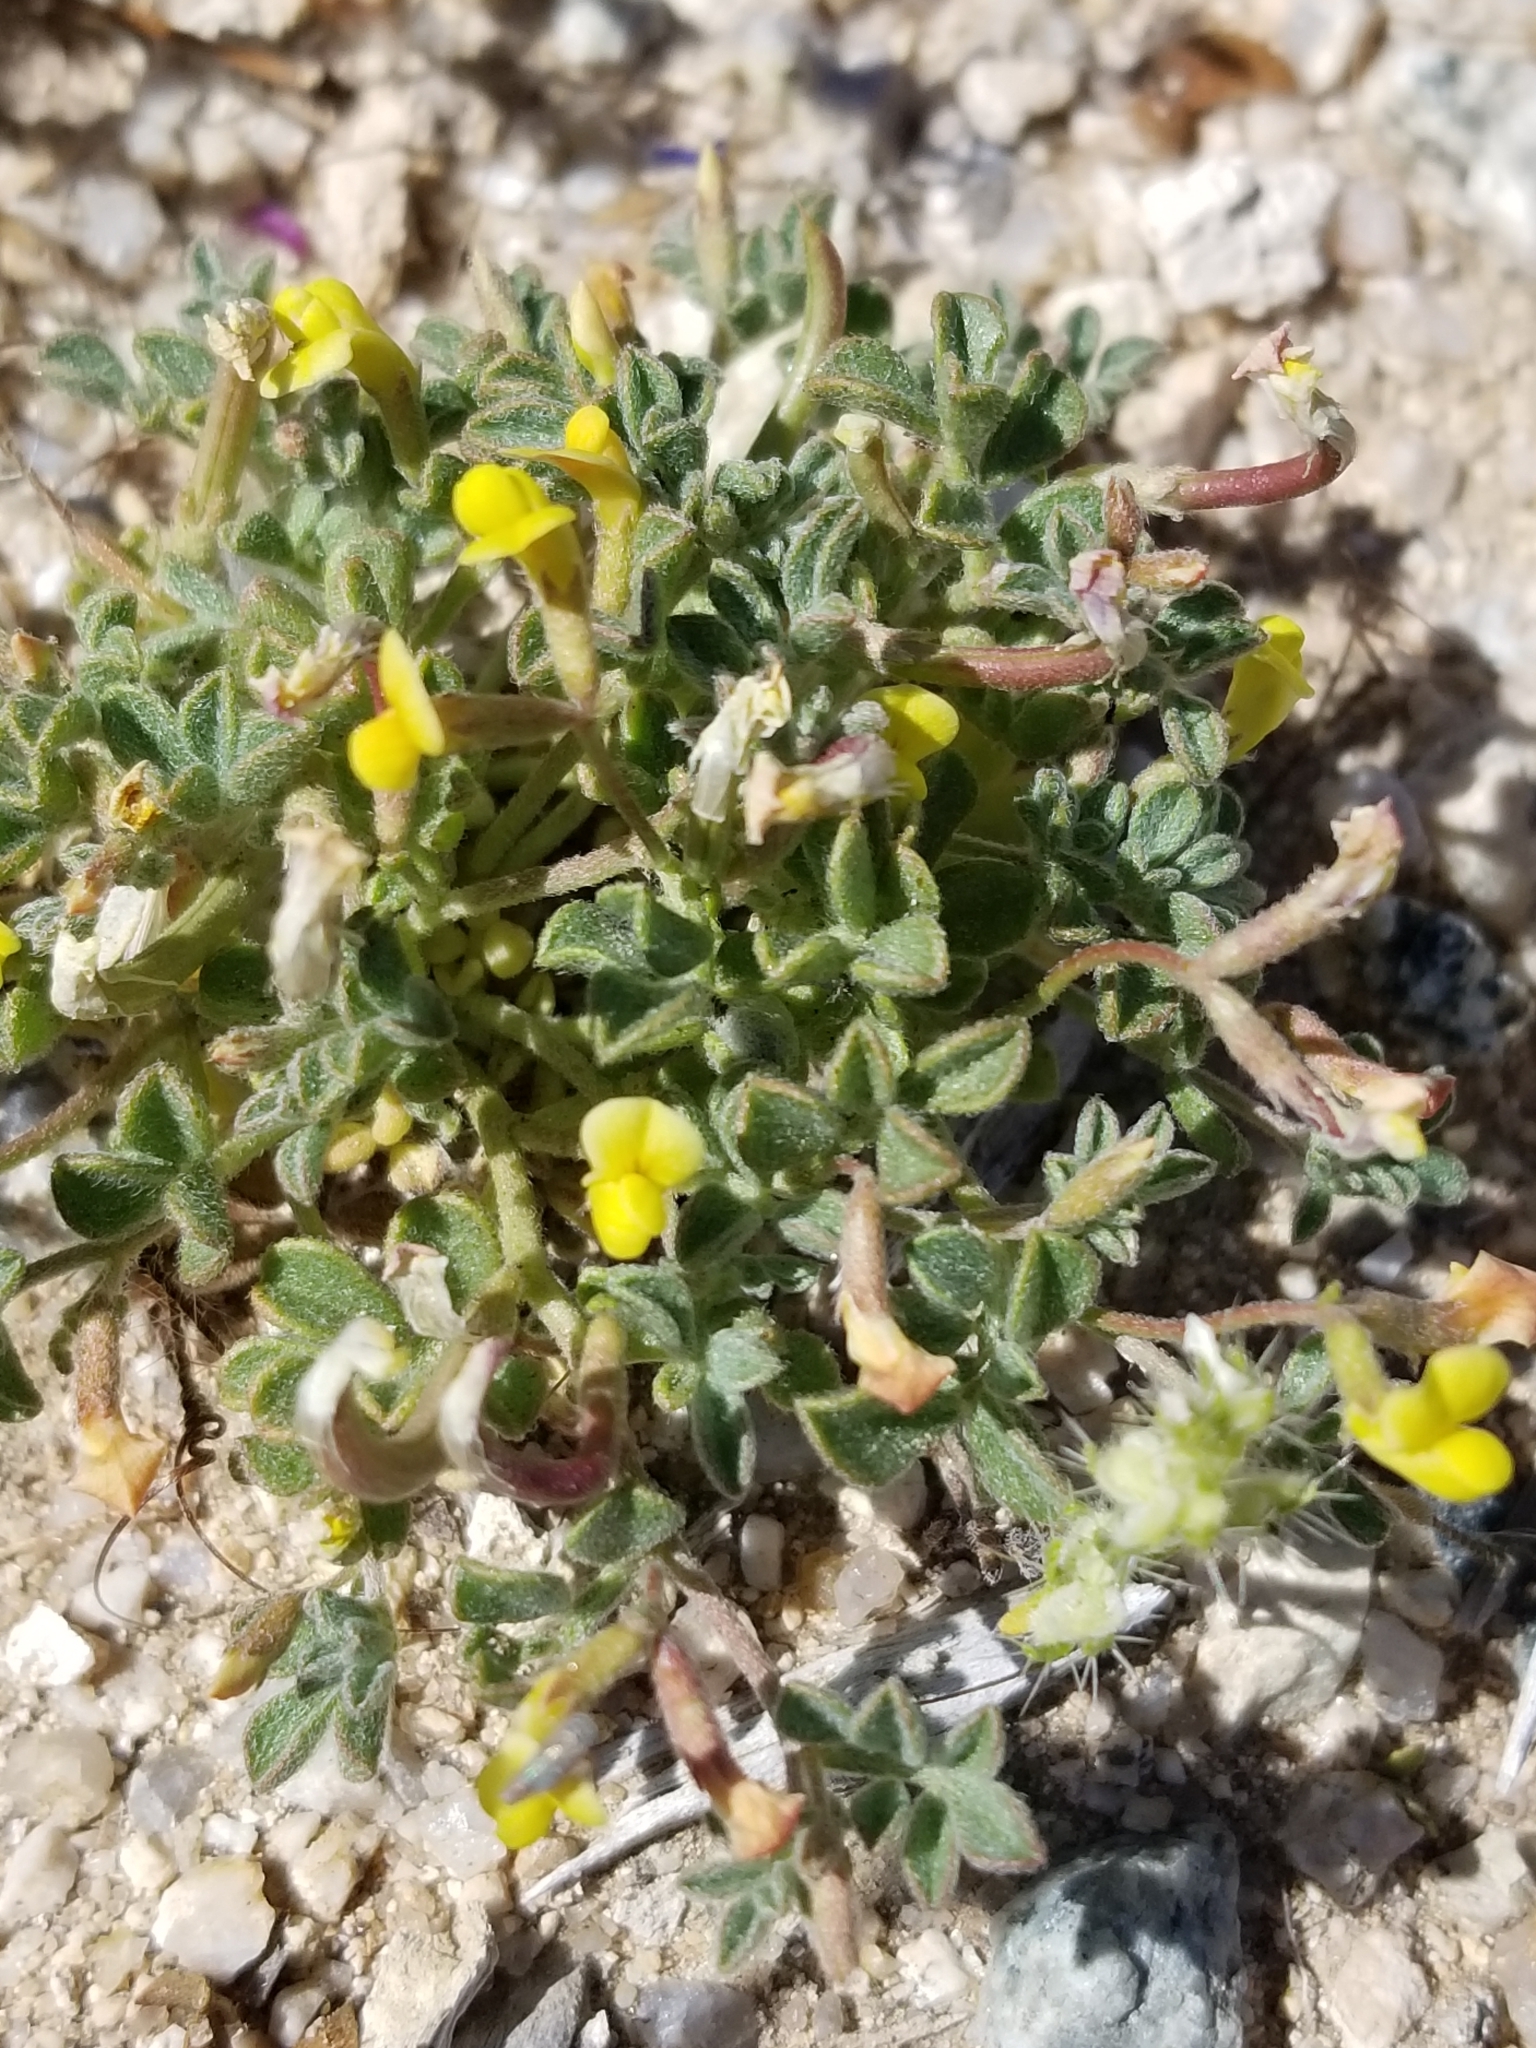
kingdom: Plantae
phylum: Tracheophyta
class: Magnoliopsida
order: Fabales
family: Fabaceae
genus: Acmispon
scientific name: Acmispon strigosus
